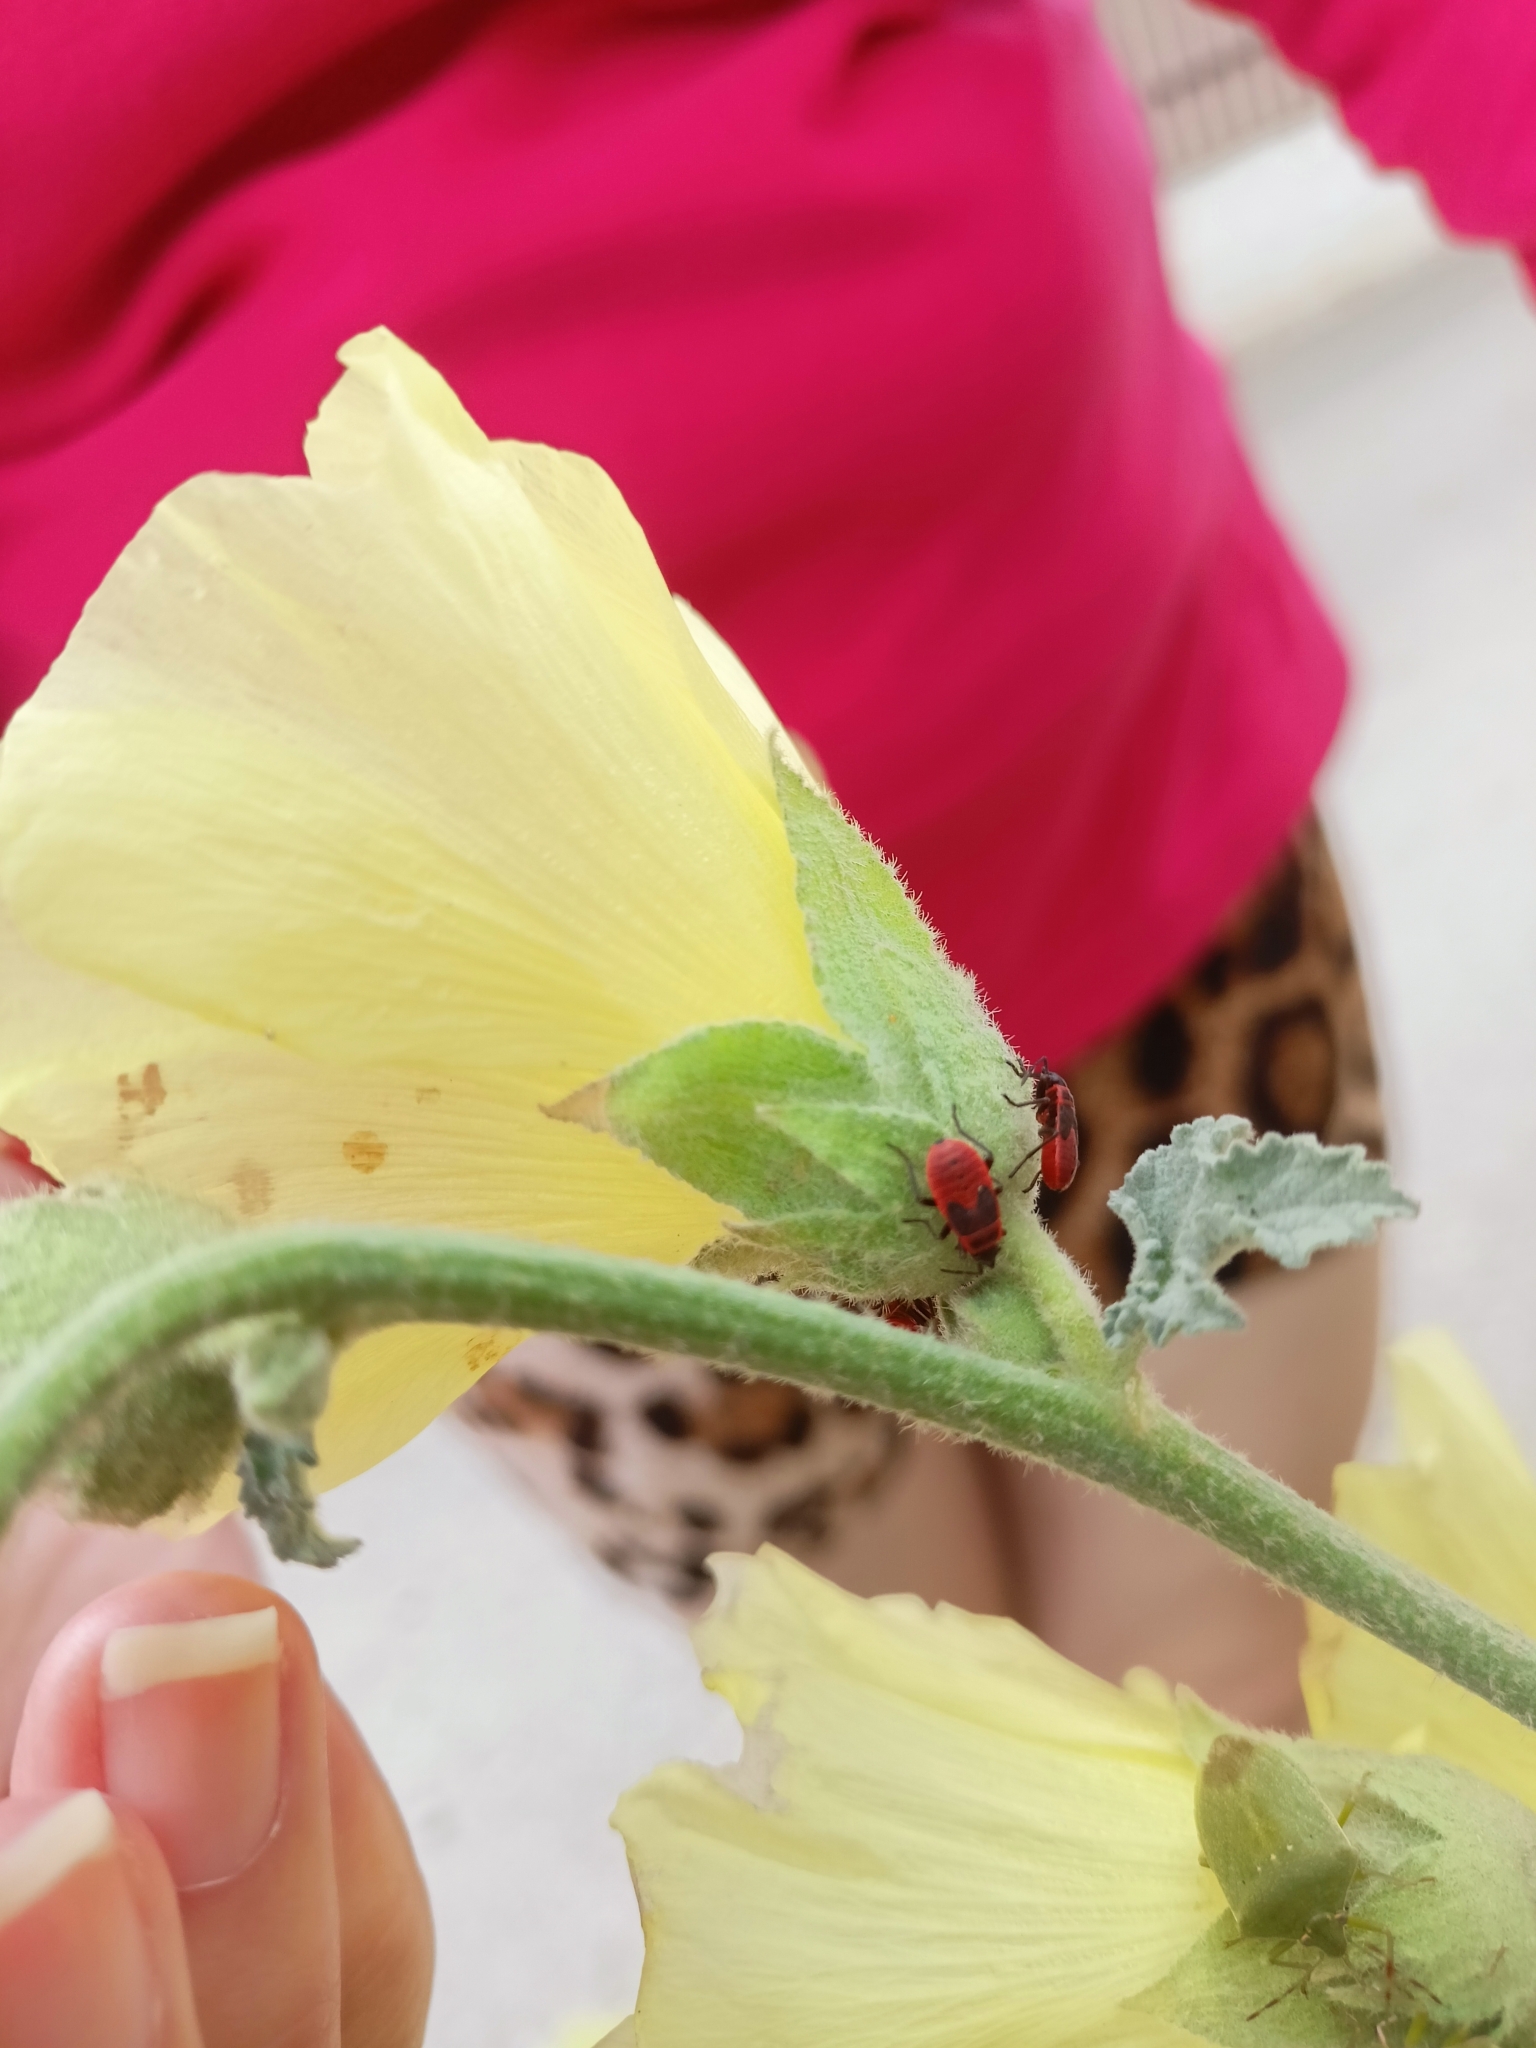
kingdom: Animalia
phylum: Arthropoda
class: Insecta
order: Hemiptera
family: Pyrrhocoridae
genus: Pyrrhocoris
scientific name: Pyrrhocoris apterus
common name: Firebug
